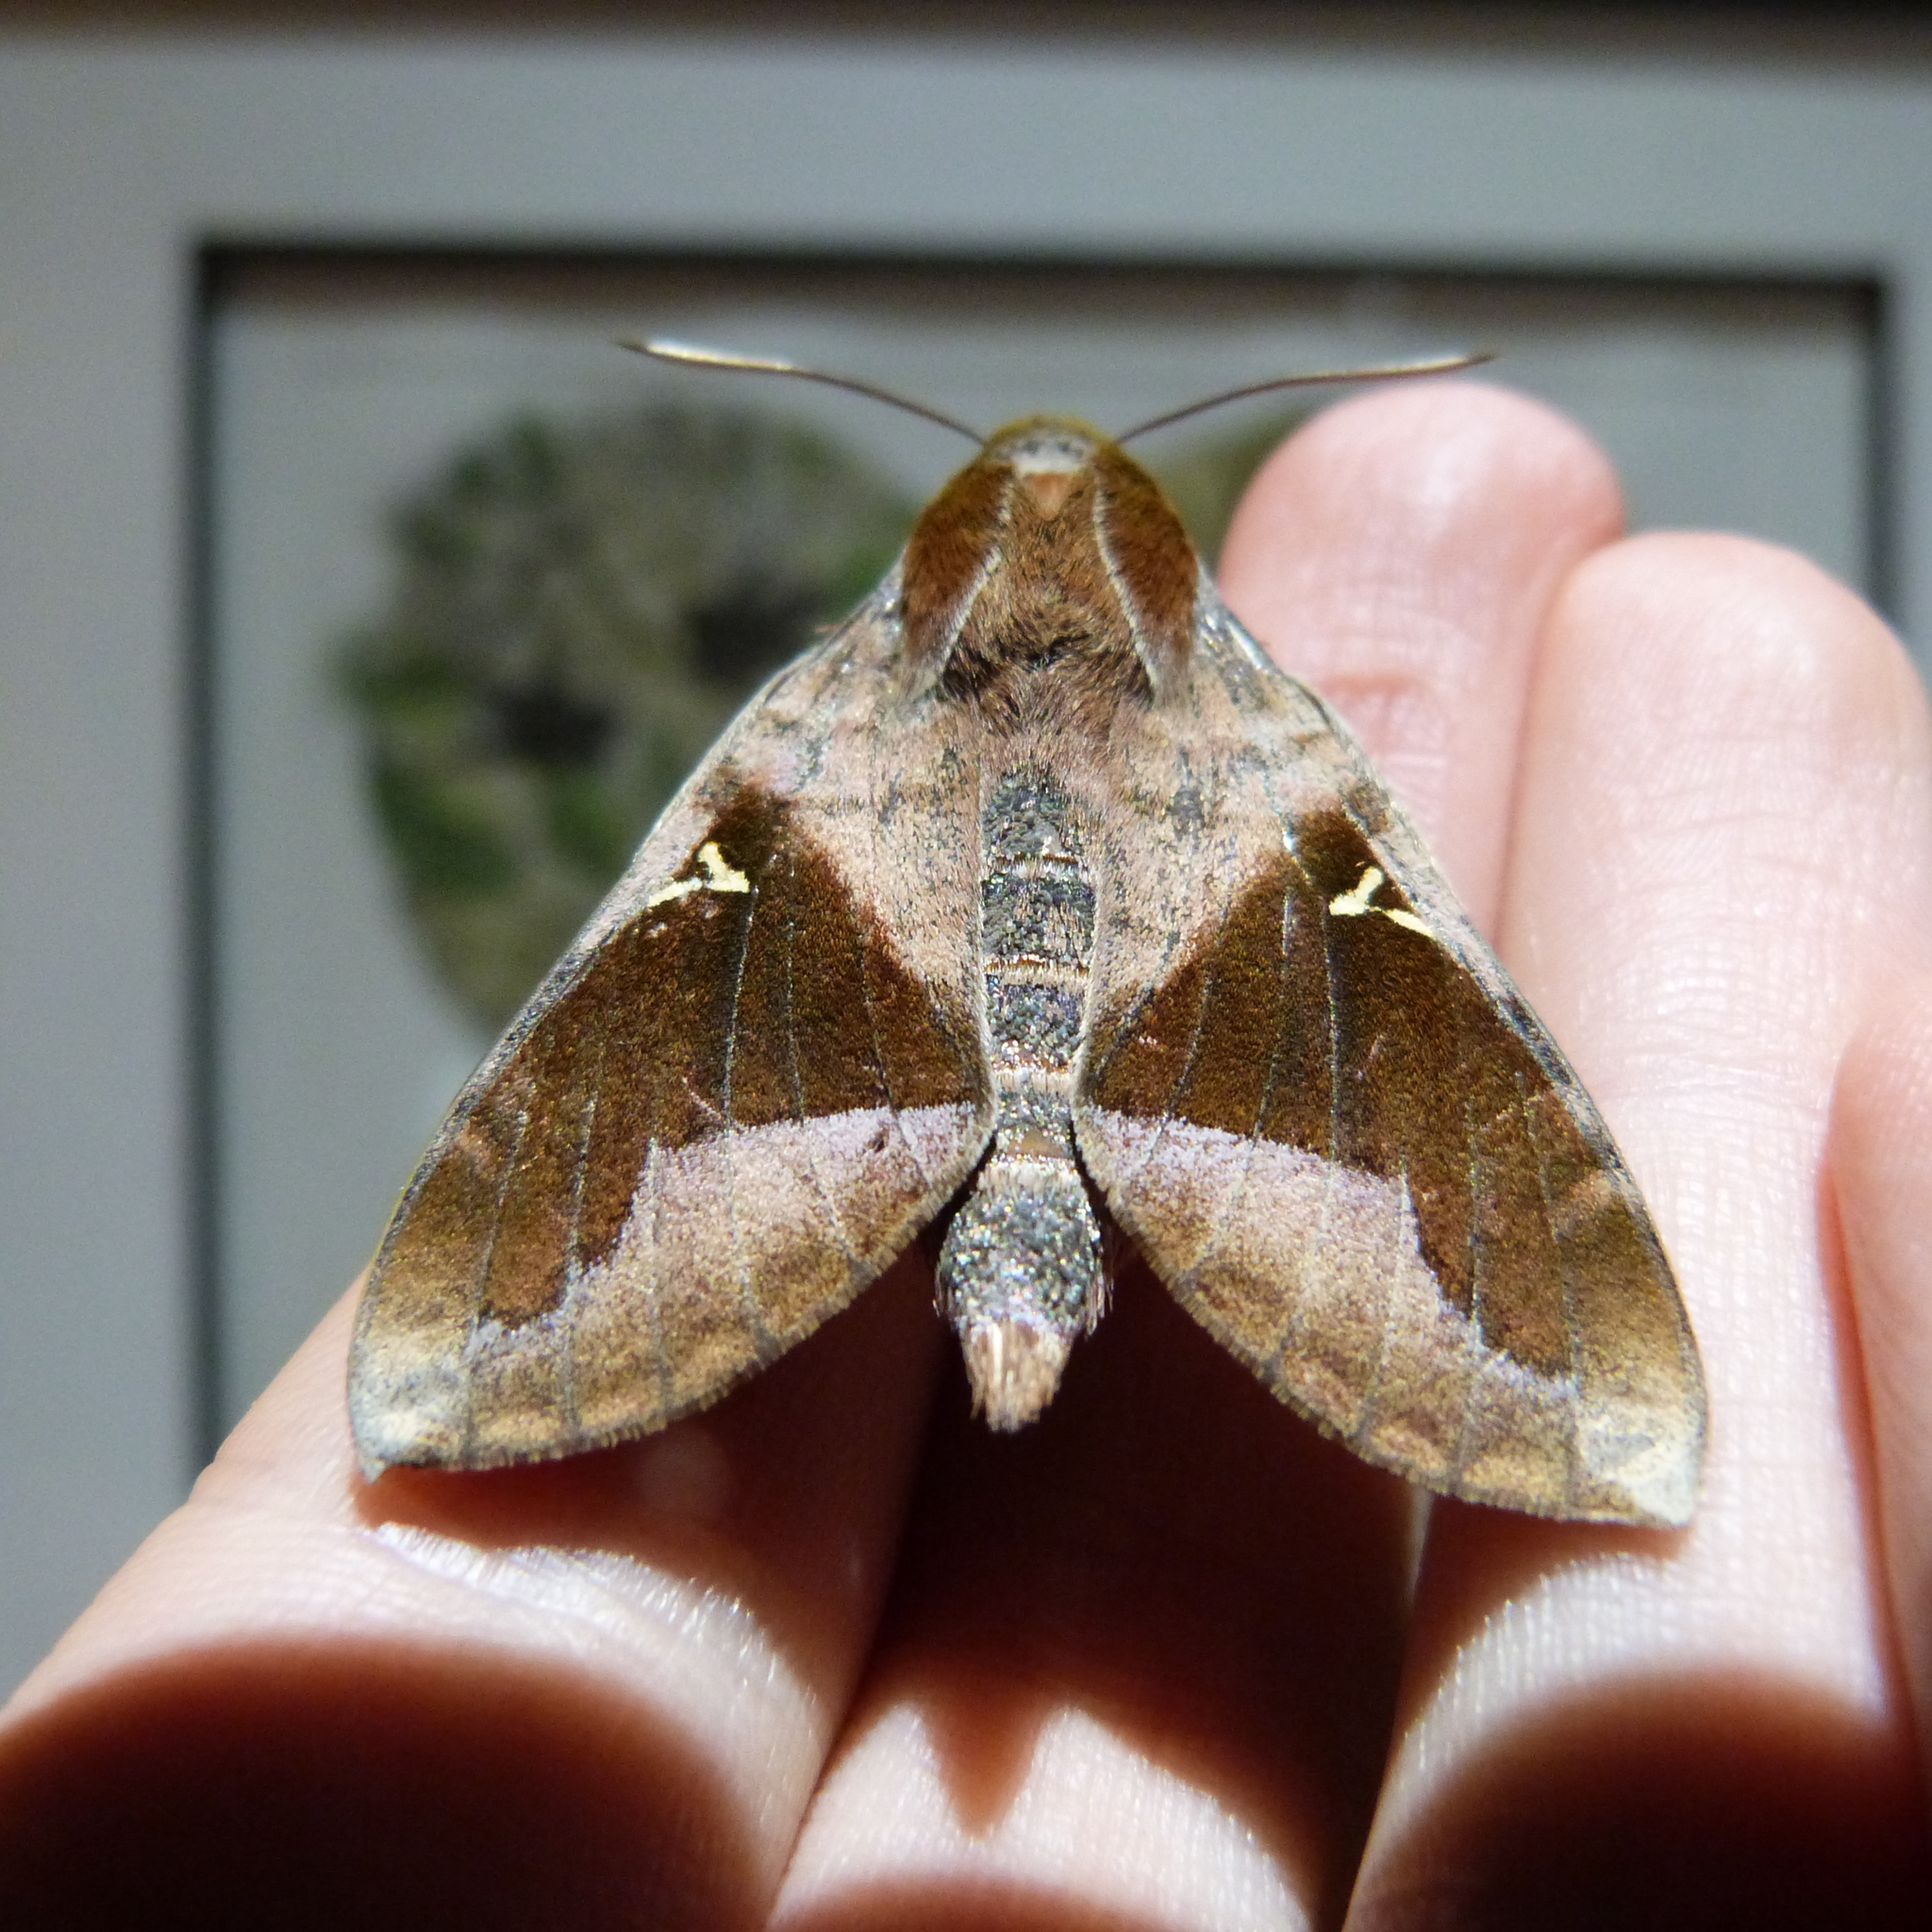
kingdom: Animalia
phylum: Arthropoda
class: Insecta
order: Lepidoptera
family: Sphingidae
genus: Nephele
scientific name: Nephele vau
